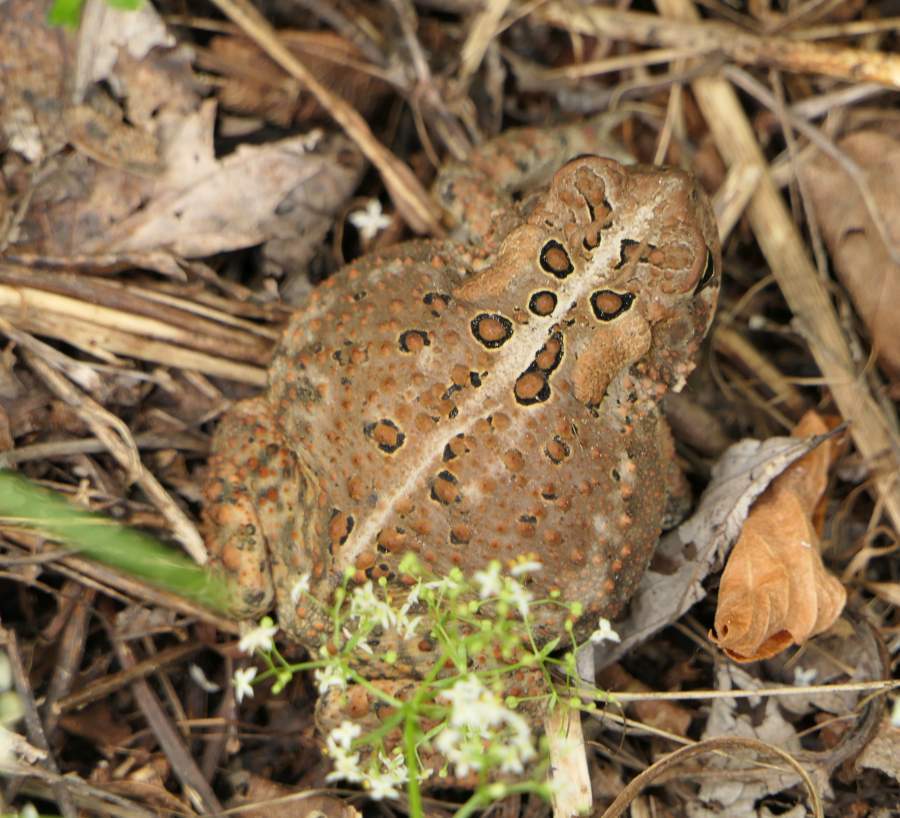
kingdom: Animalia
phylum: Chordata
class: Amphibia
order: Anura
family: Bufonidae
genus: Anaxyrus
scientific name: Anaxyrus americanus
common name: American toad
